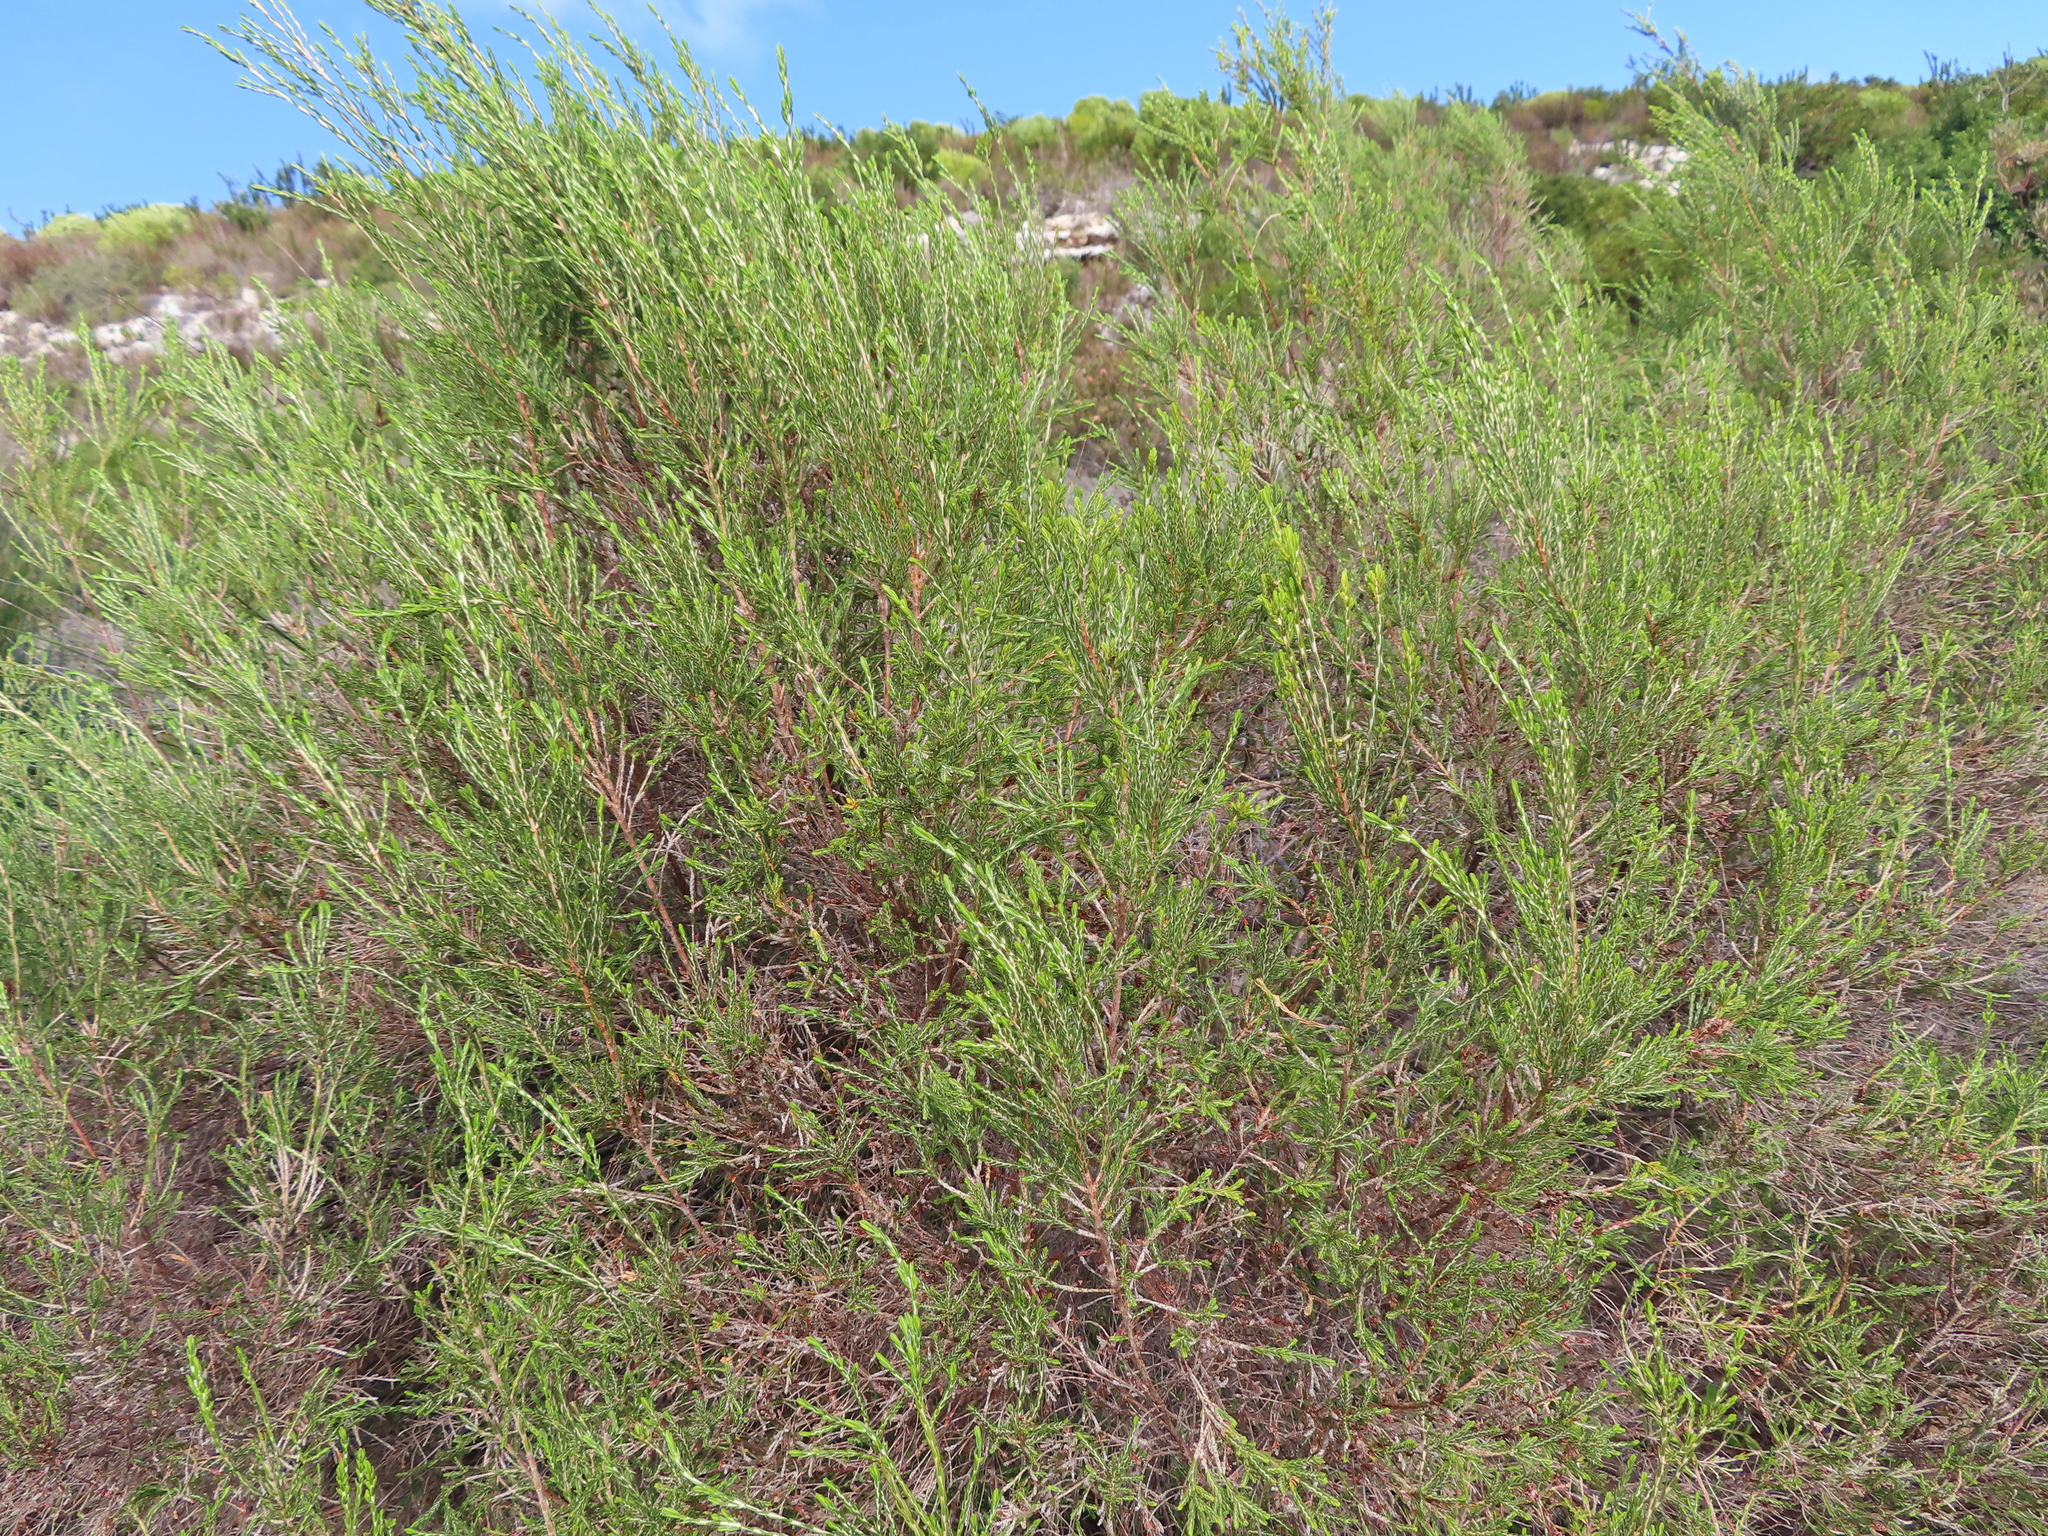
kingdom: Plantae
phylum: Tracheophyta
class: Magnoliopsida
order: Malvales
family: Thymelaeaceae
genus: Passerina
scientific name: Passerina corymbosa
